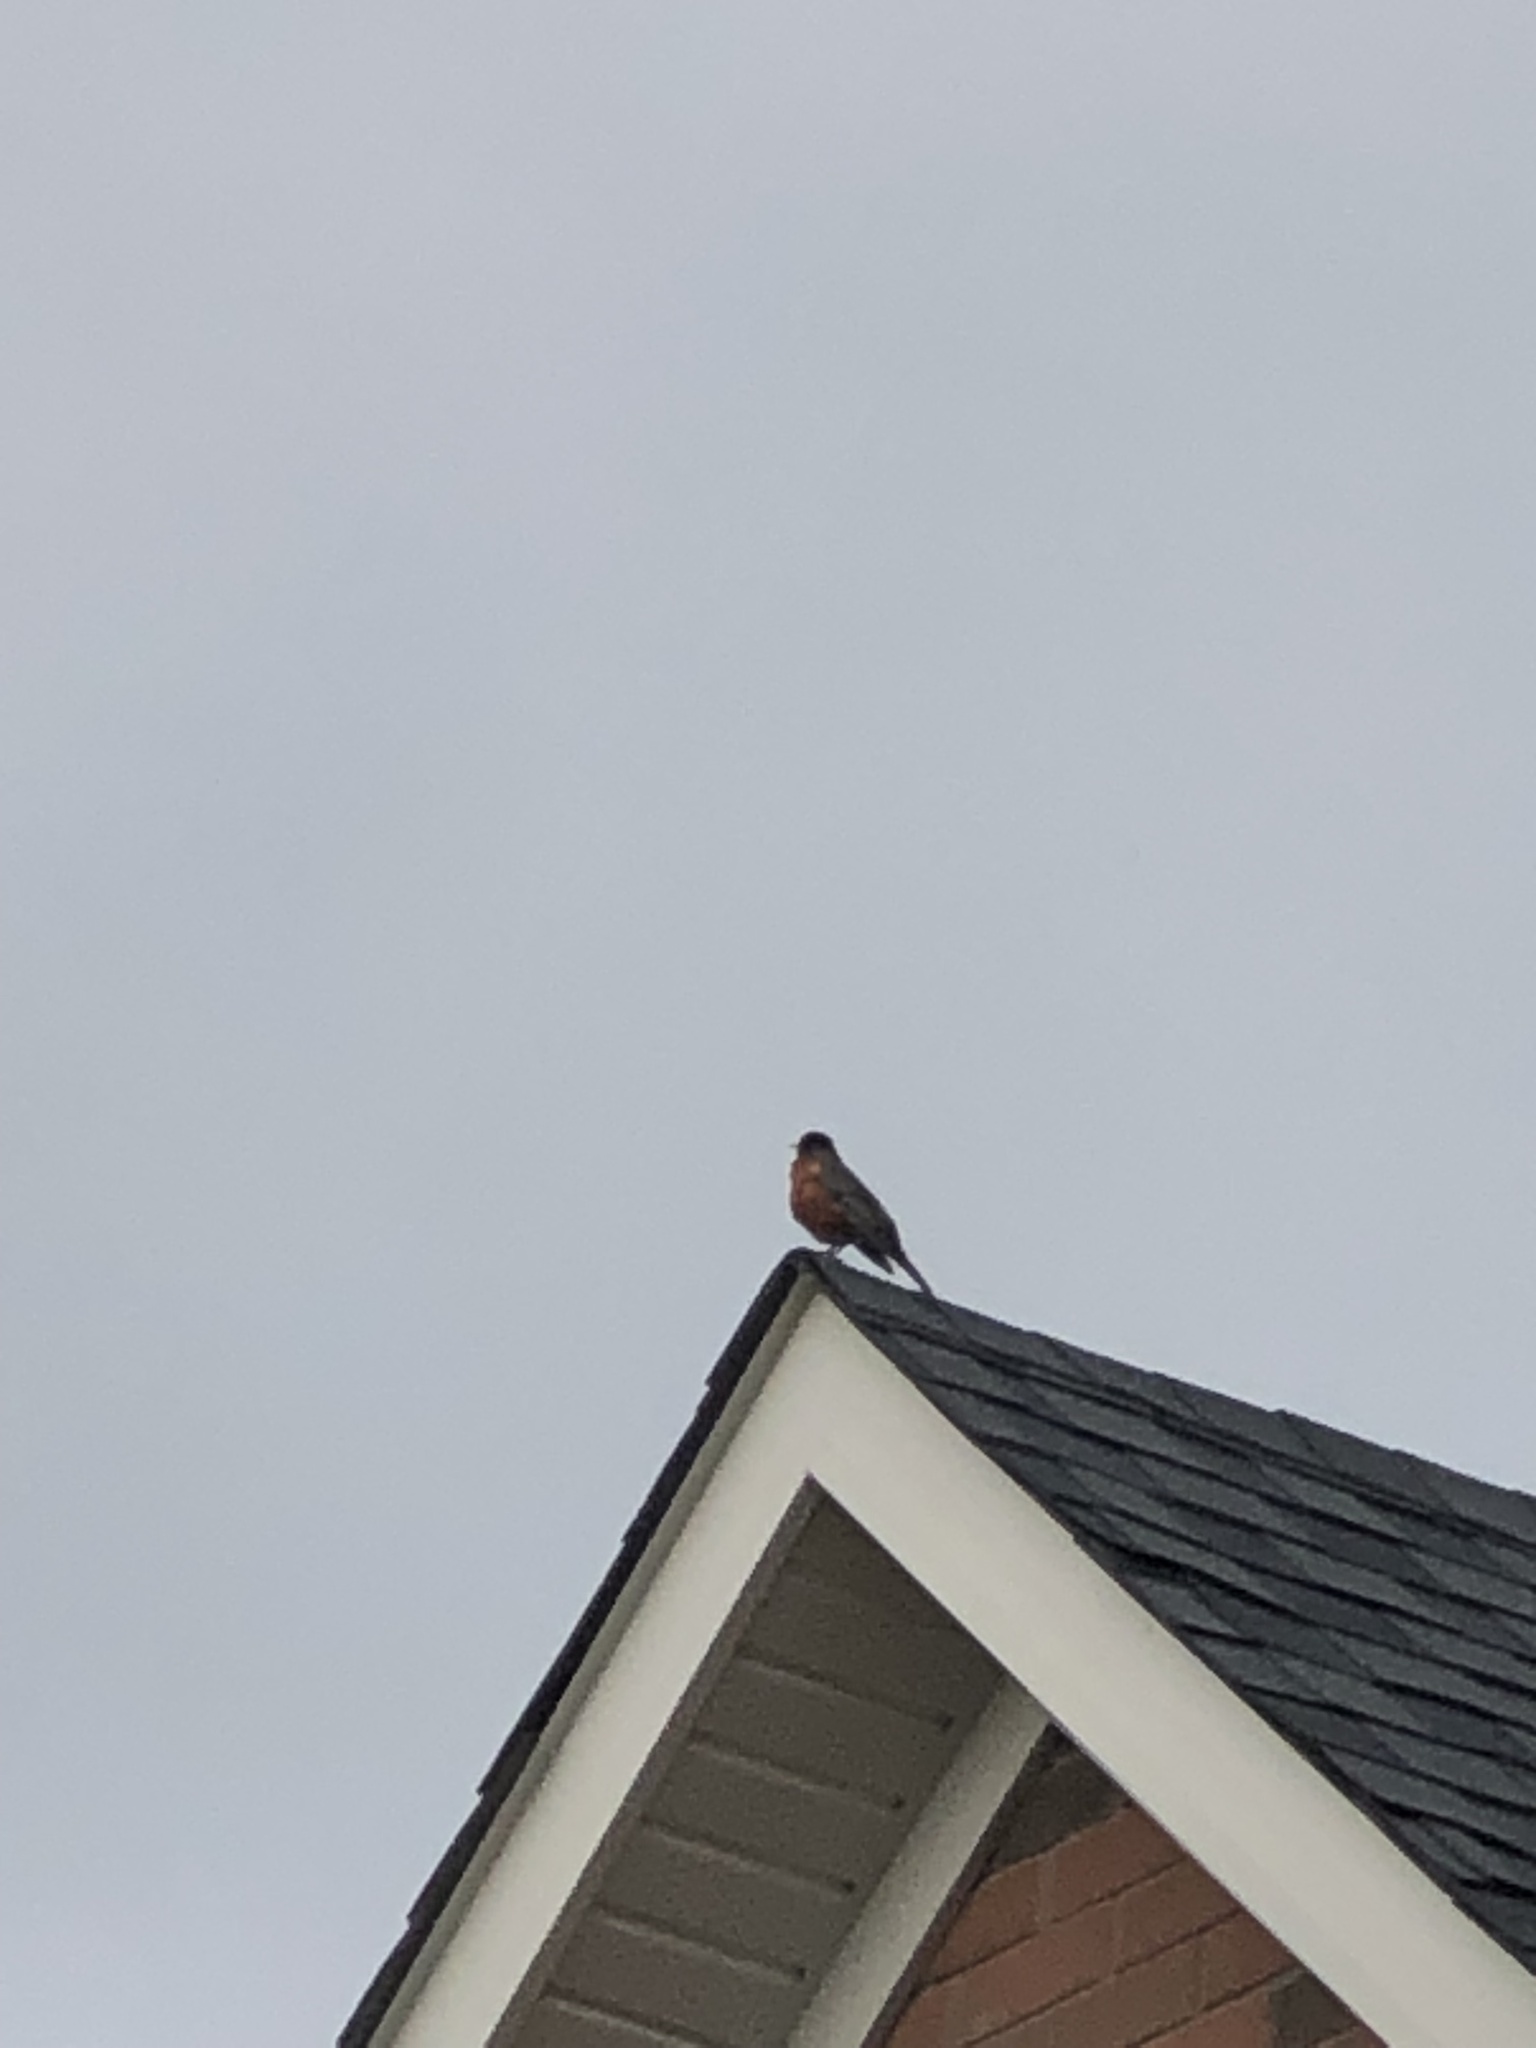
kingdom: Animalia
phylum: Chordata
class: Aves
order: Passeriformes
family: Turdidae
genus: Turdus
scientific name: Turdus migratorius
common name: American robin
